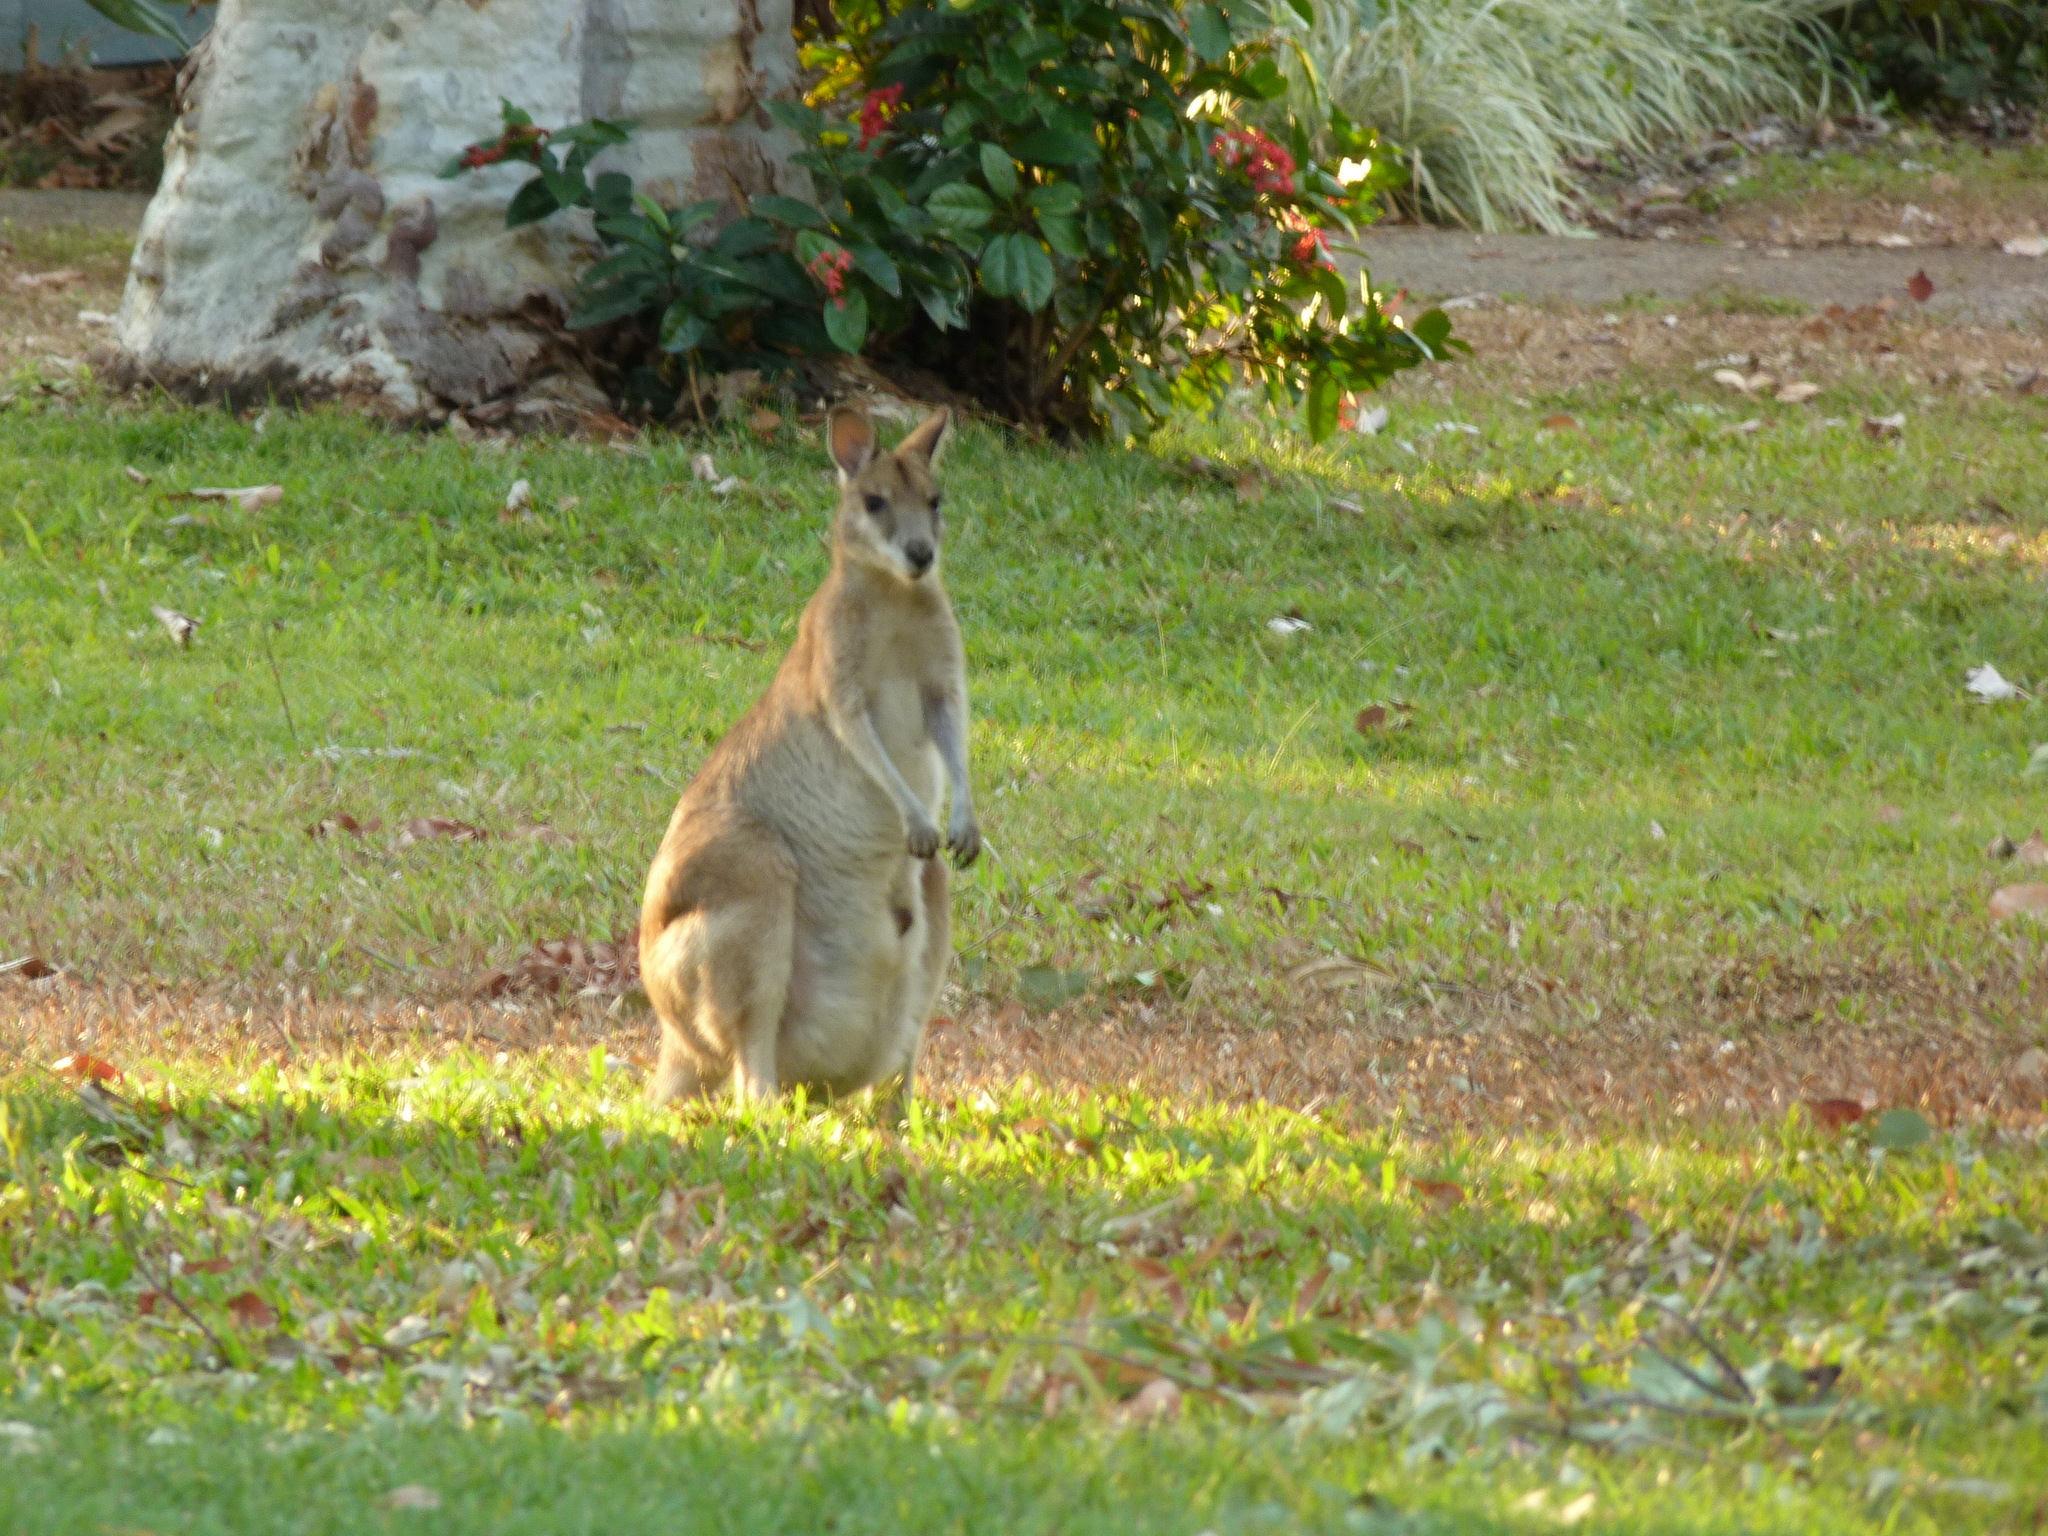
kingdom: Animalia
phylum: Chordata
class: Mammalia
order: Diprotodontia
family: Macropodidae
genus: Macropus
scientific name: Macropus agilis
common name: Agile wallaby
